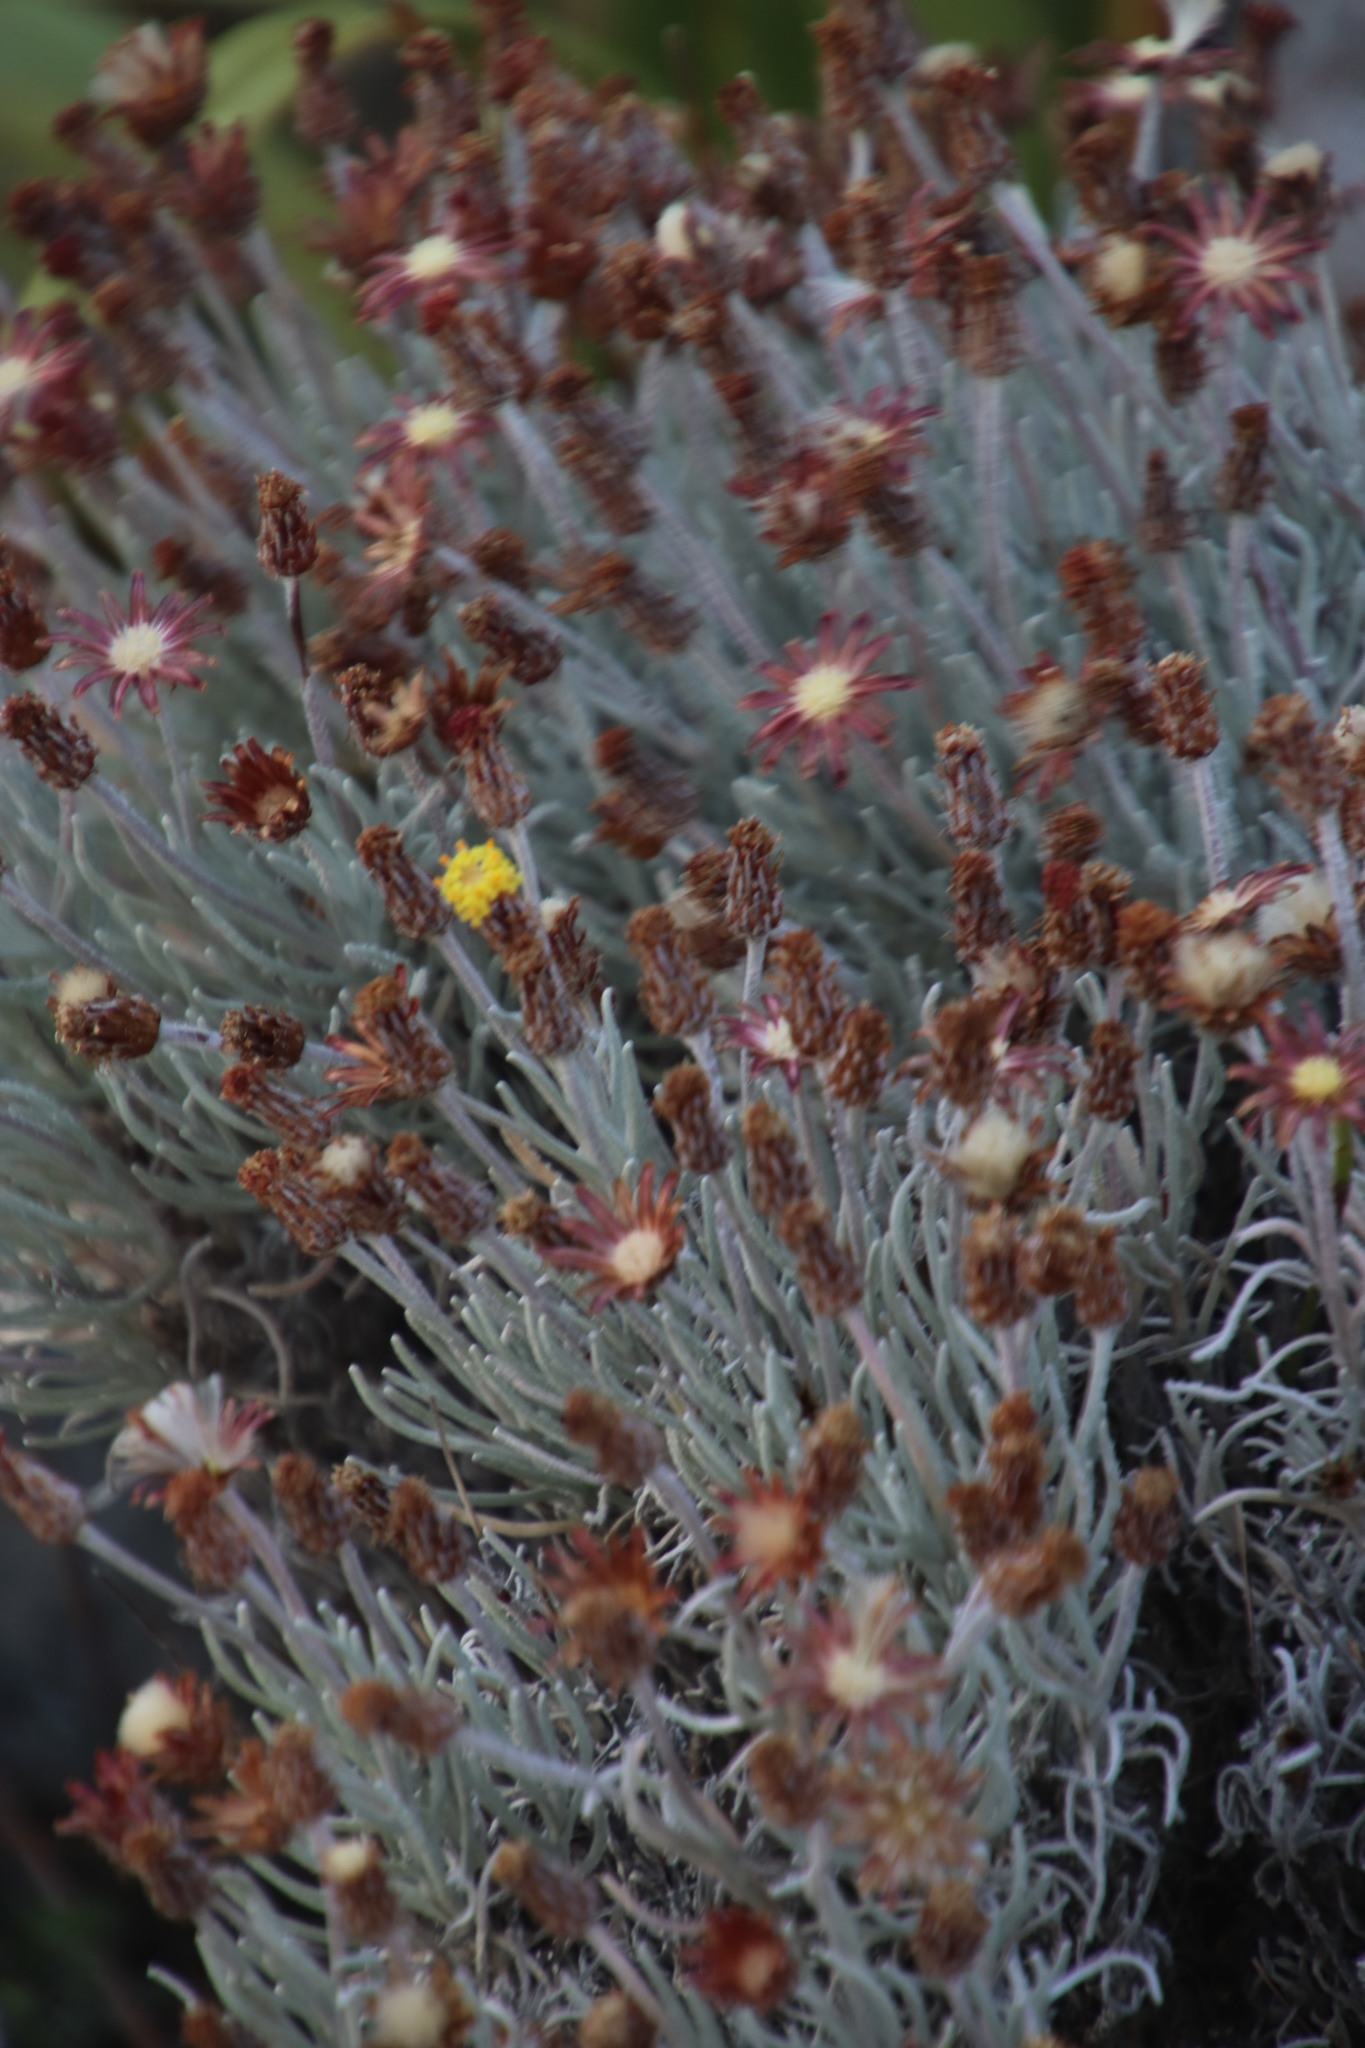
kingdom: Plantae
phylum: Tracheophyta
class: Magnoliopsida
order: Asterales
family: Asteraceae
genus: Syncarpha
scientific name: Syncarpha gnaphaloides
